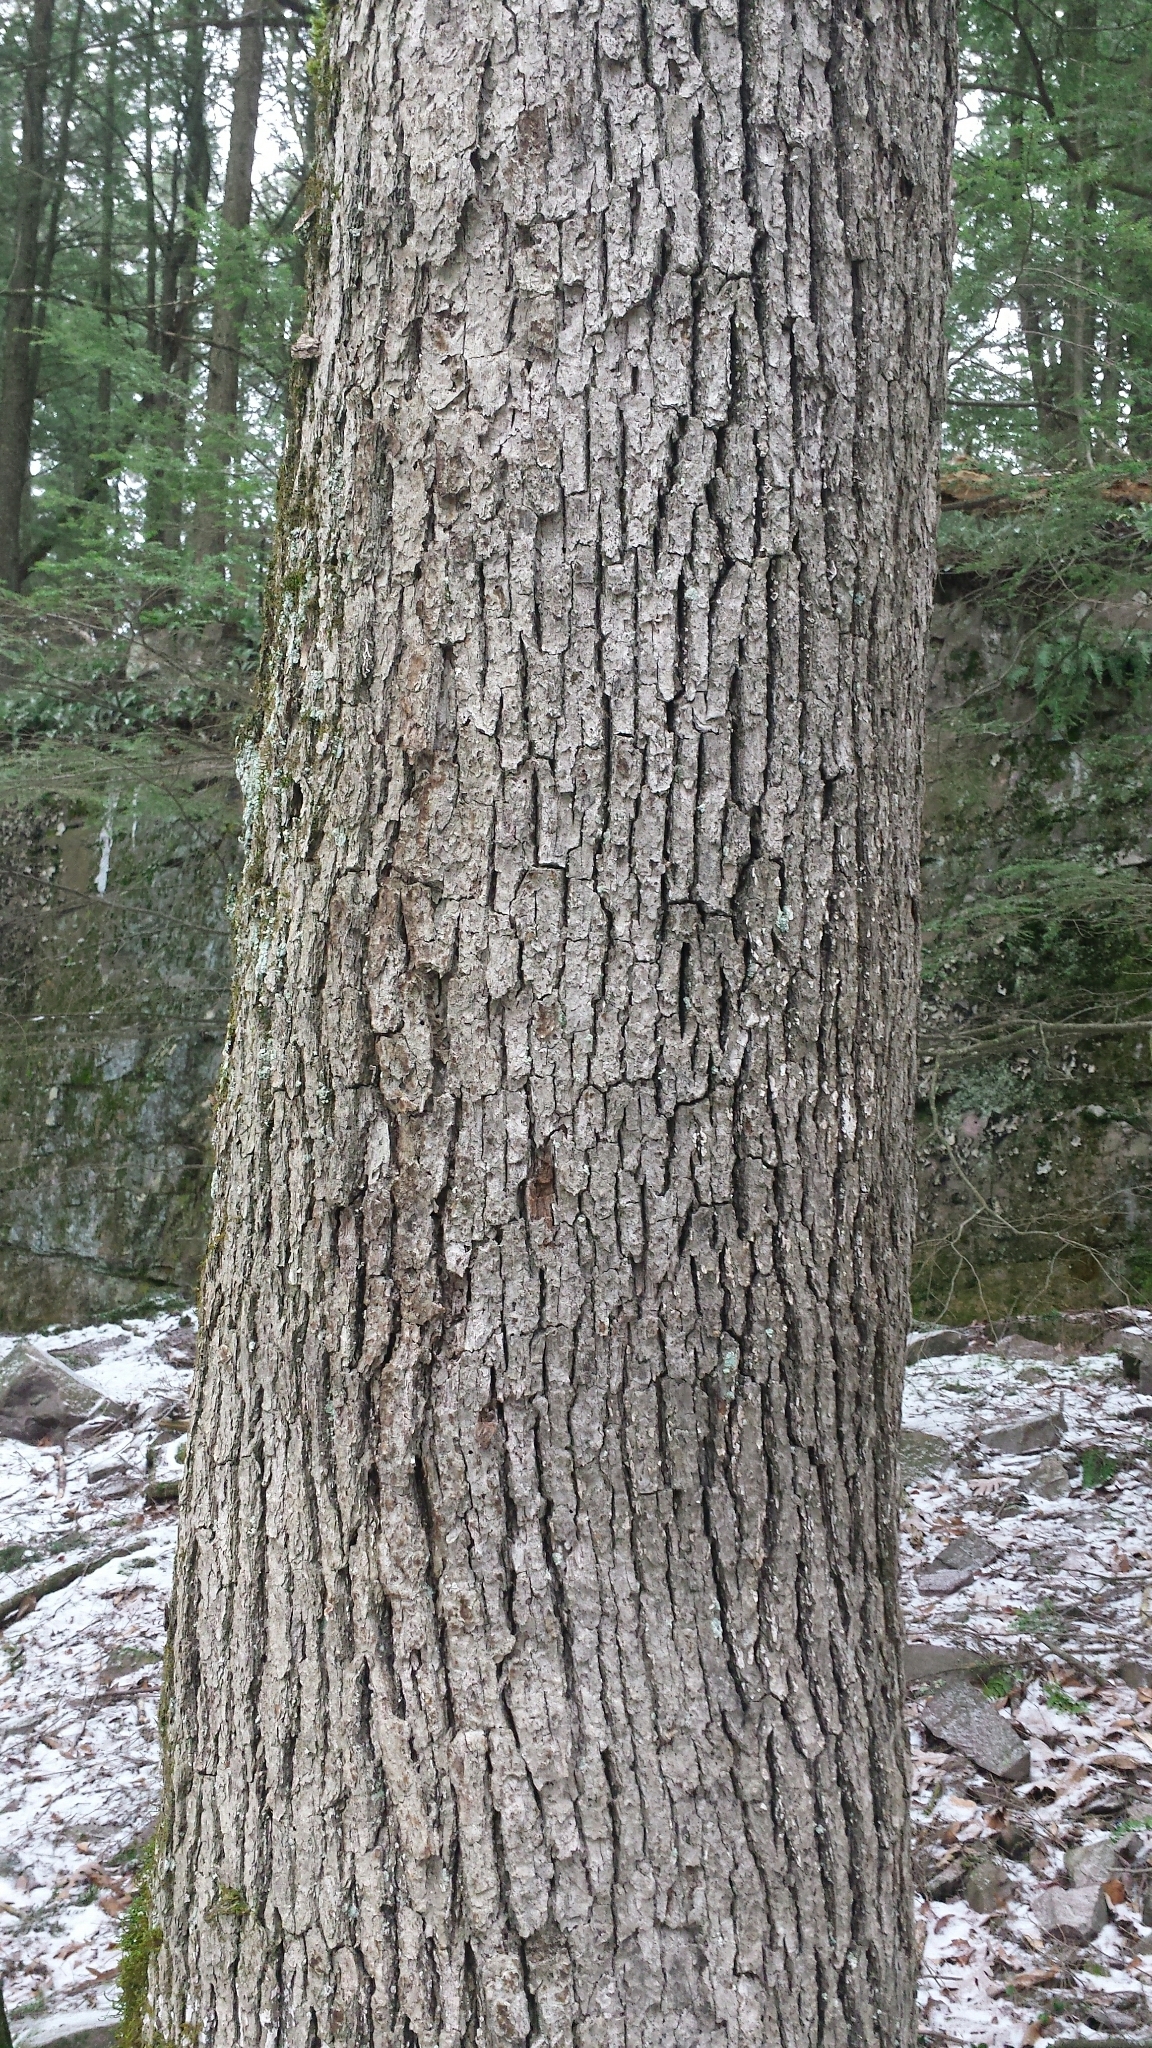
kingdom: Plantae
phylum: Tracheophyta
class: Magnoliopsida
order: Fagales
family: Fagaceae
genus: Quercus
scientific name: Quercus alba
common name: White oak
